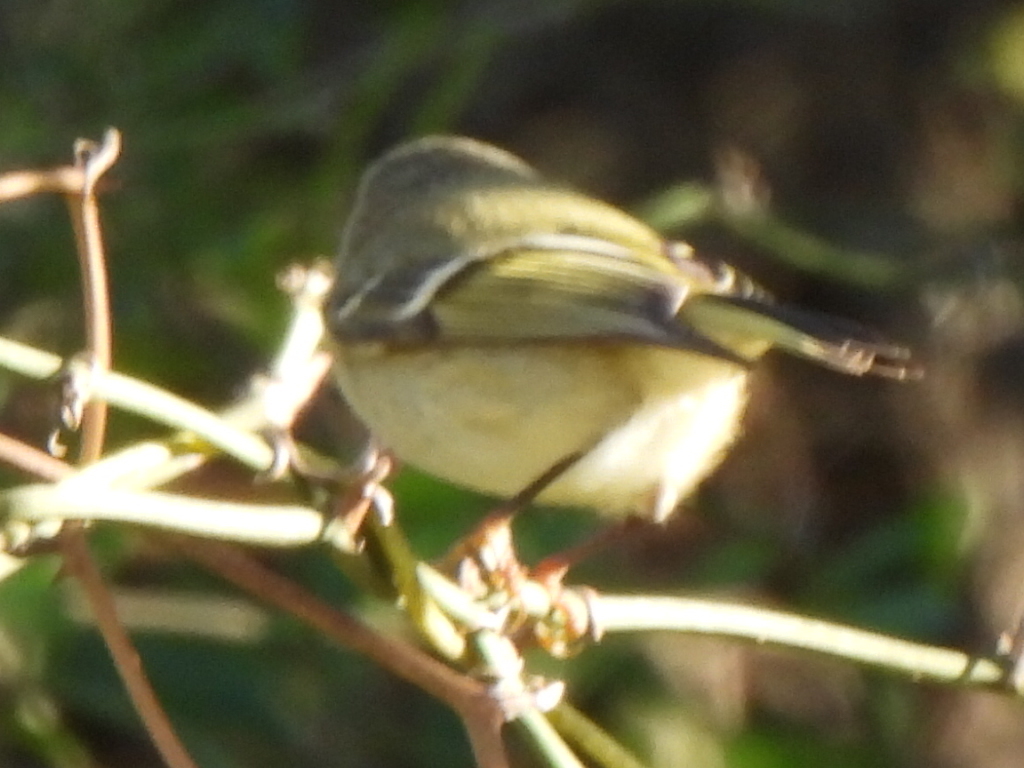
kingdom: Animalia
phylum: Chordata
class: Aves
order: Passeriformes
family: Regulidae
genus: Regulus
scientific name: Regulus calendula
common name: Ruby-crowned kinglet
